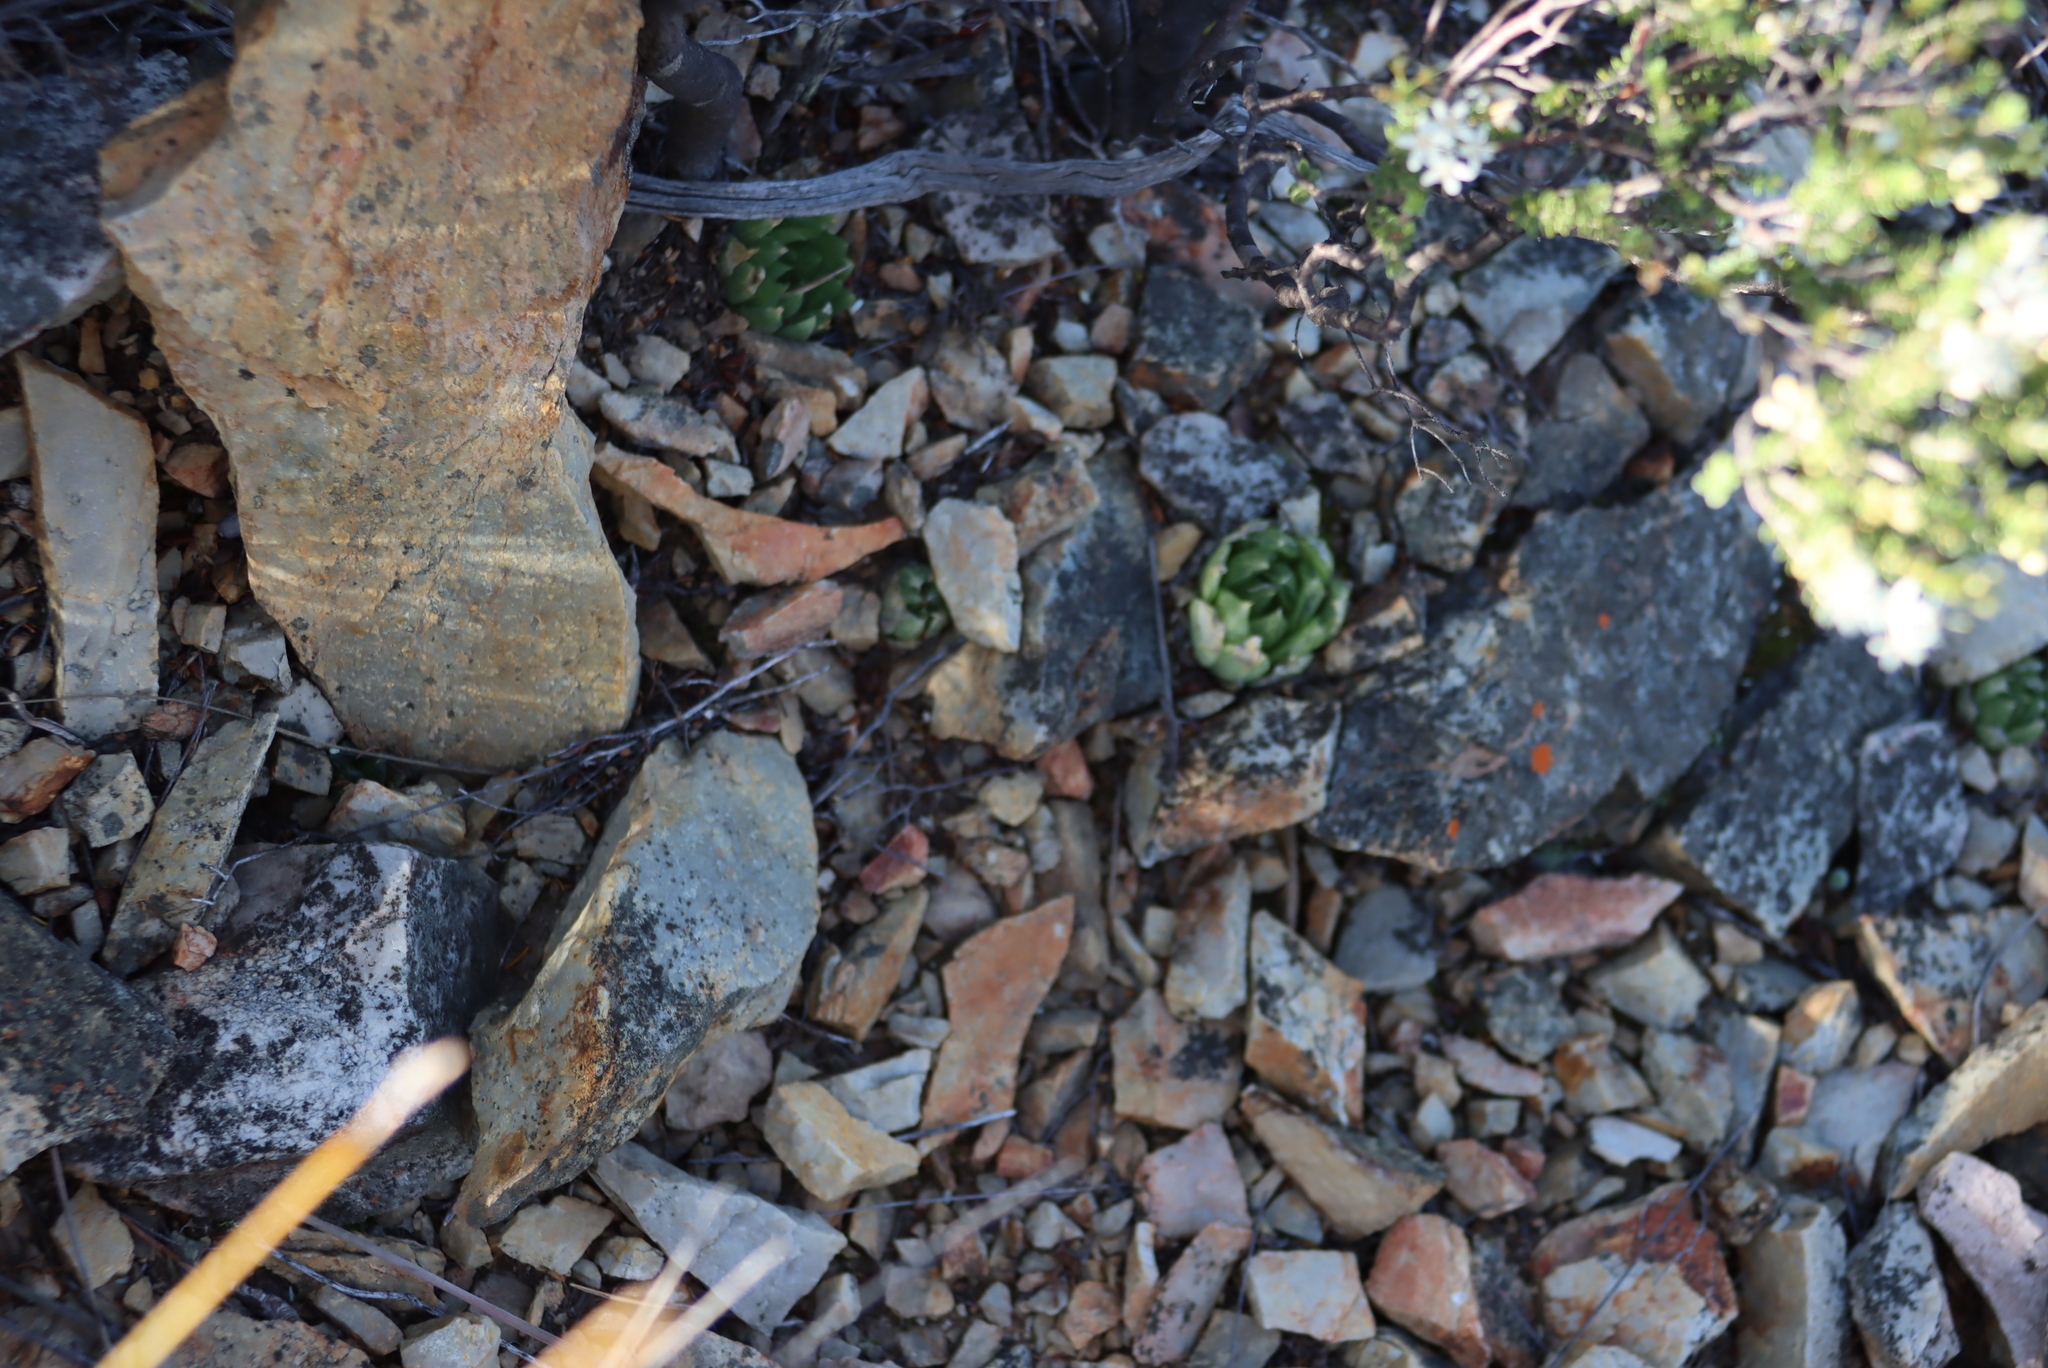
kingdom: Plantae
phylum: Tracheophyta
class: Liliopsida
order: Asparagales
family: Asphodelaceae
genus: Haworthia
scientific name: Haworthia cooperi
